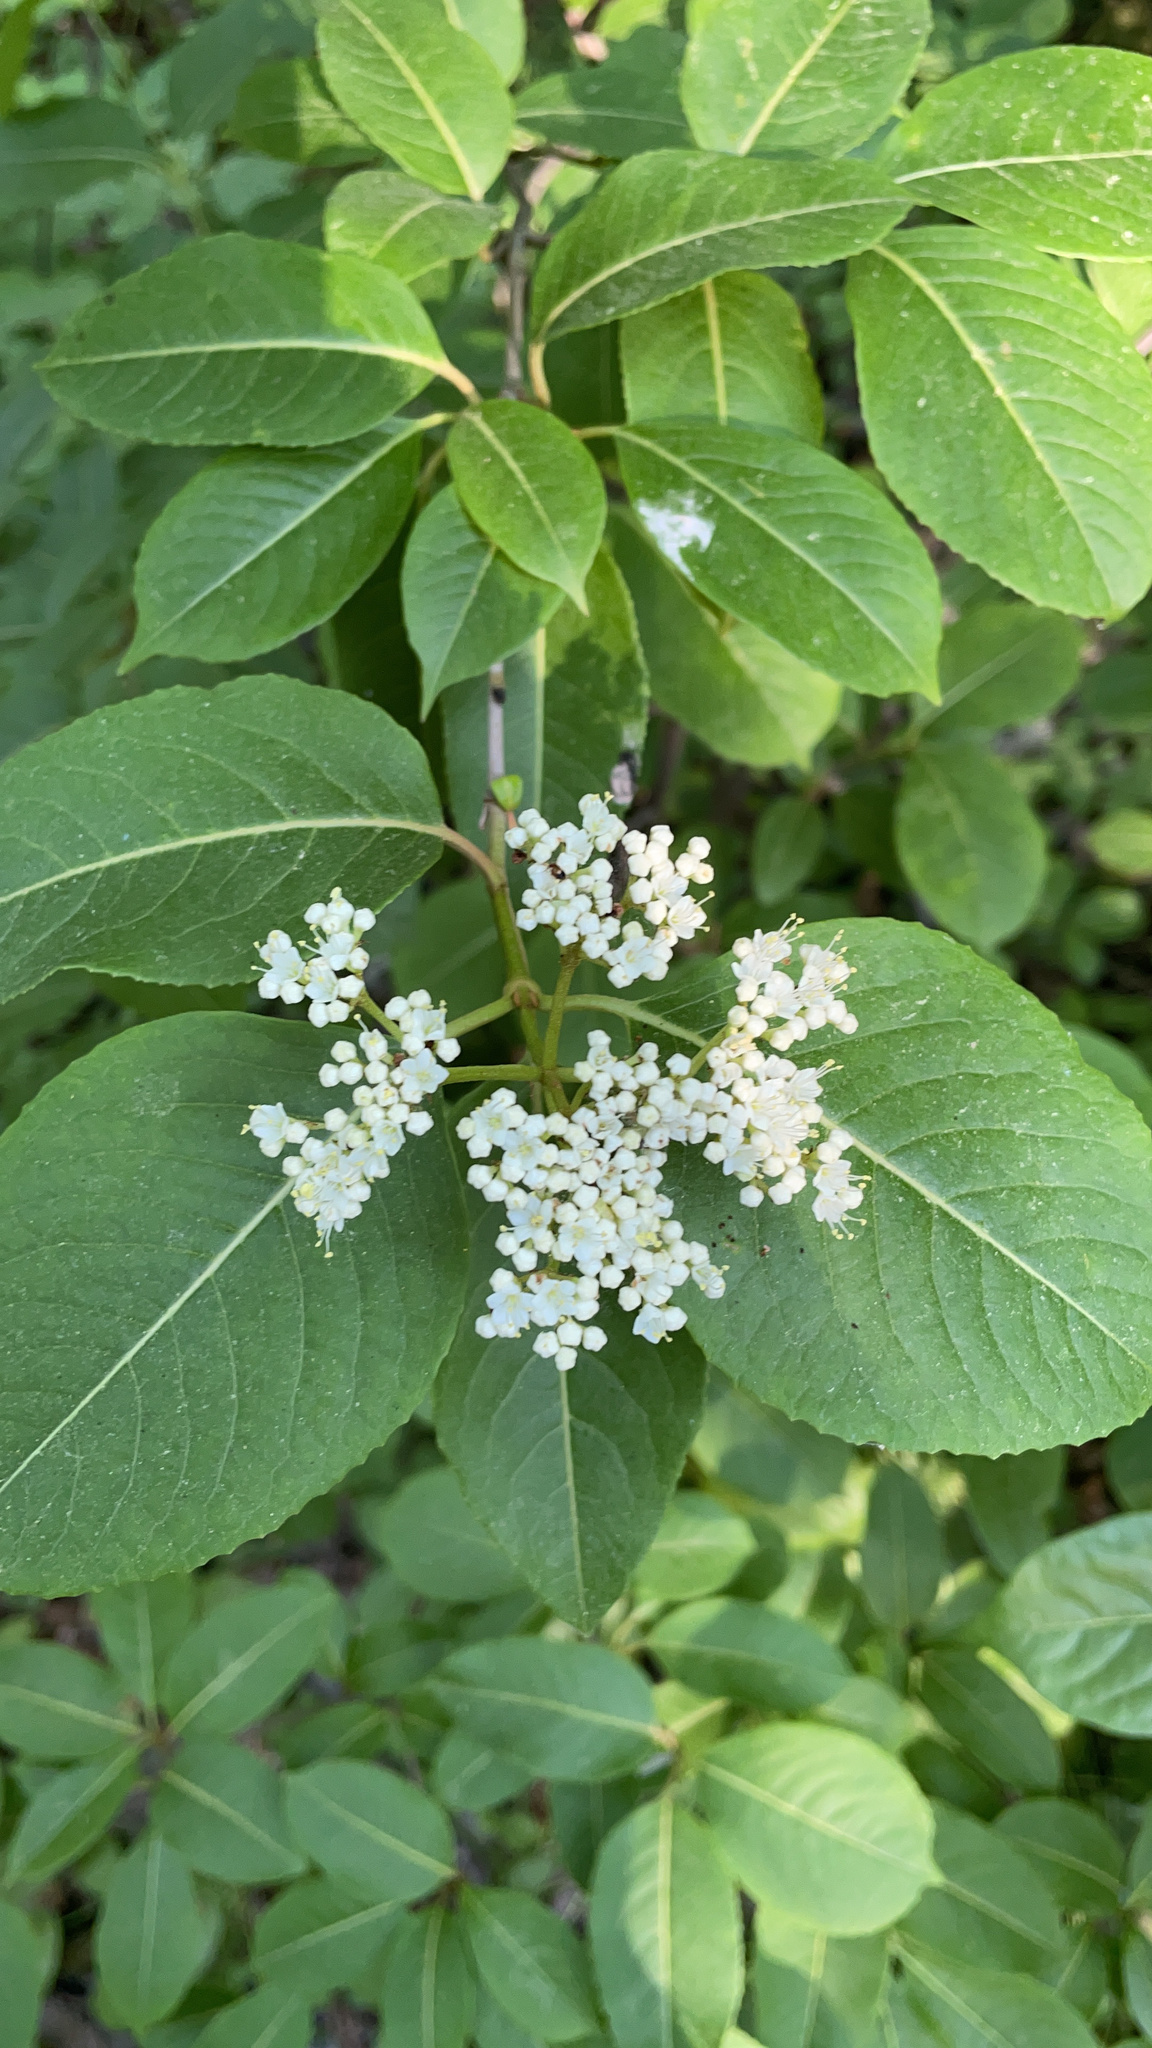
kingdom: Plantae
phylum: Tracheophyta
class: Magnoliopsida
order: Dipsacales
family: Viburnaceae
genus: Viburnum
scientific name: Viburnum cassinoides
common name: Swamp haw
